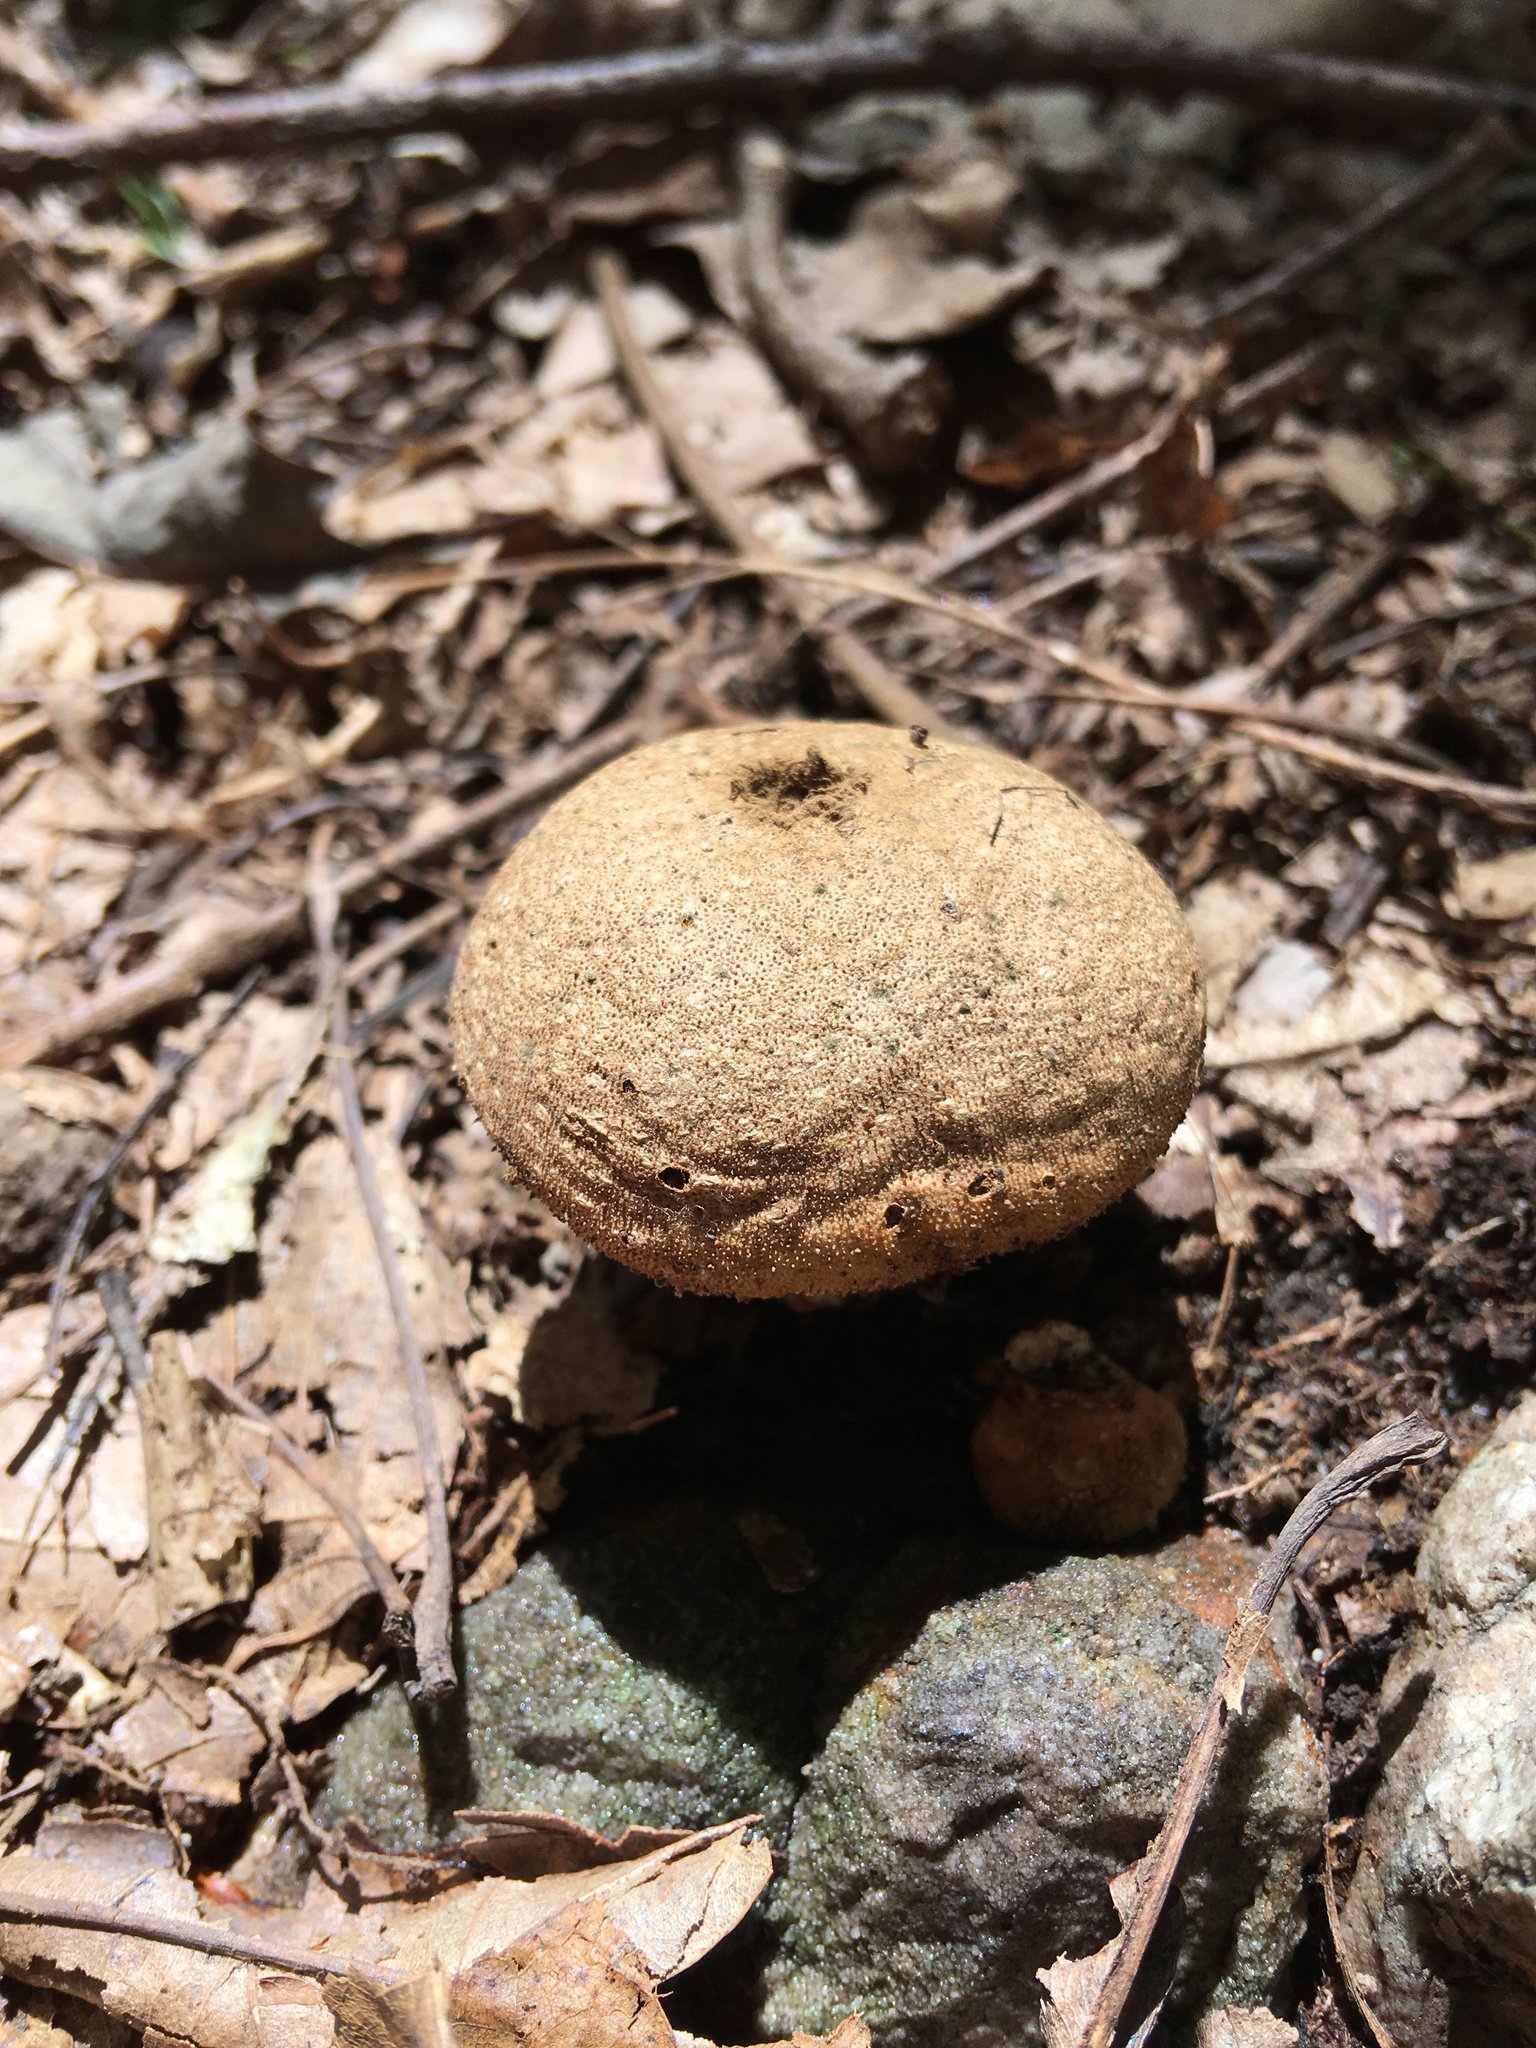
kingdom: Fungi
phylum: Basidiomycota
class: Agaricomycetes
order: Boletales
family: Sclerodermataceae
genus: Scleroderma
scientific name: Scleroderma citrinum
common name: Common earthball
